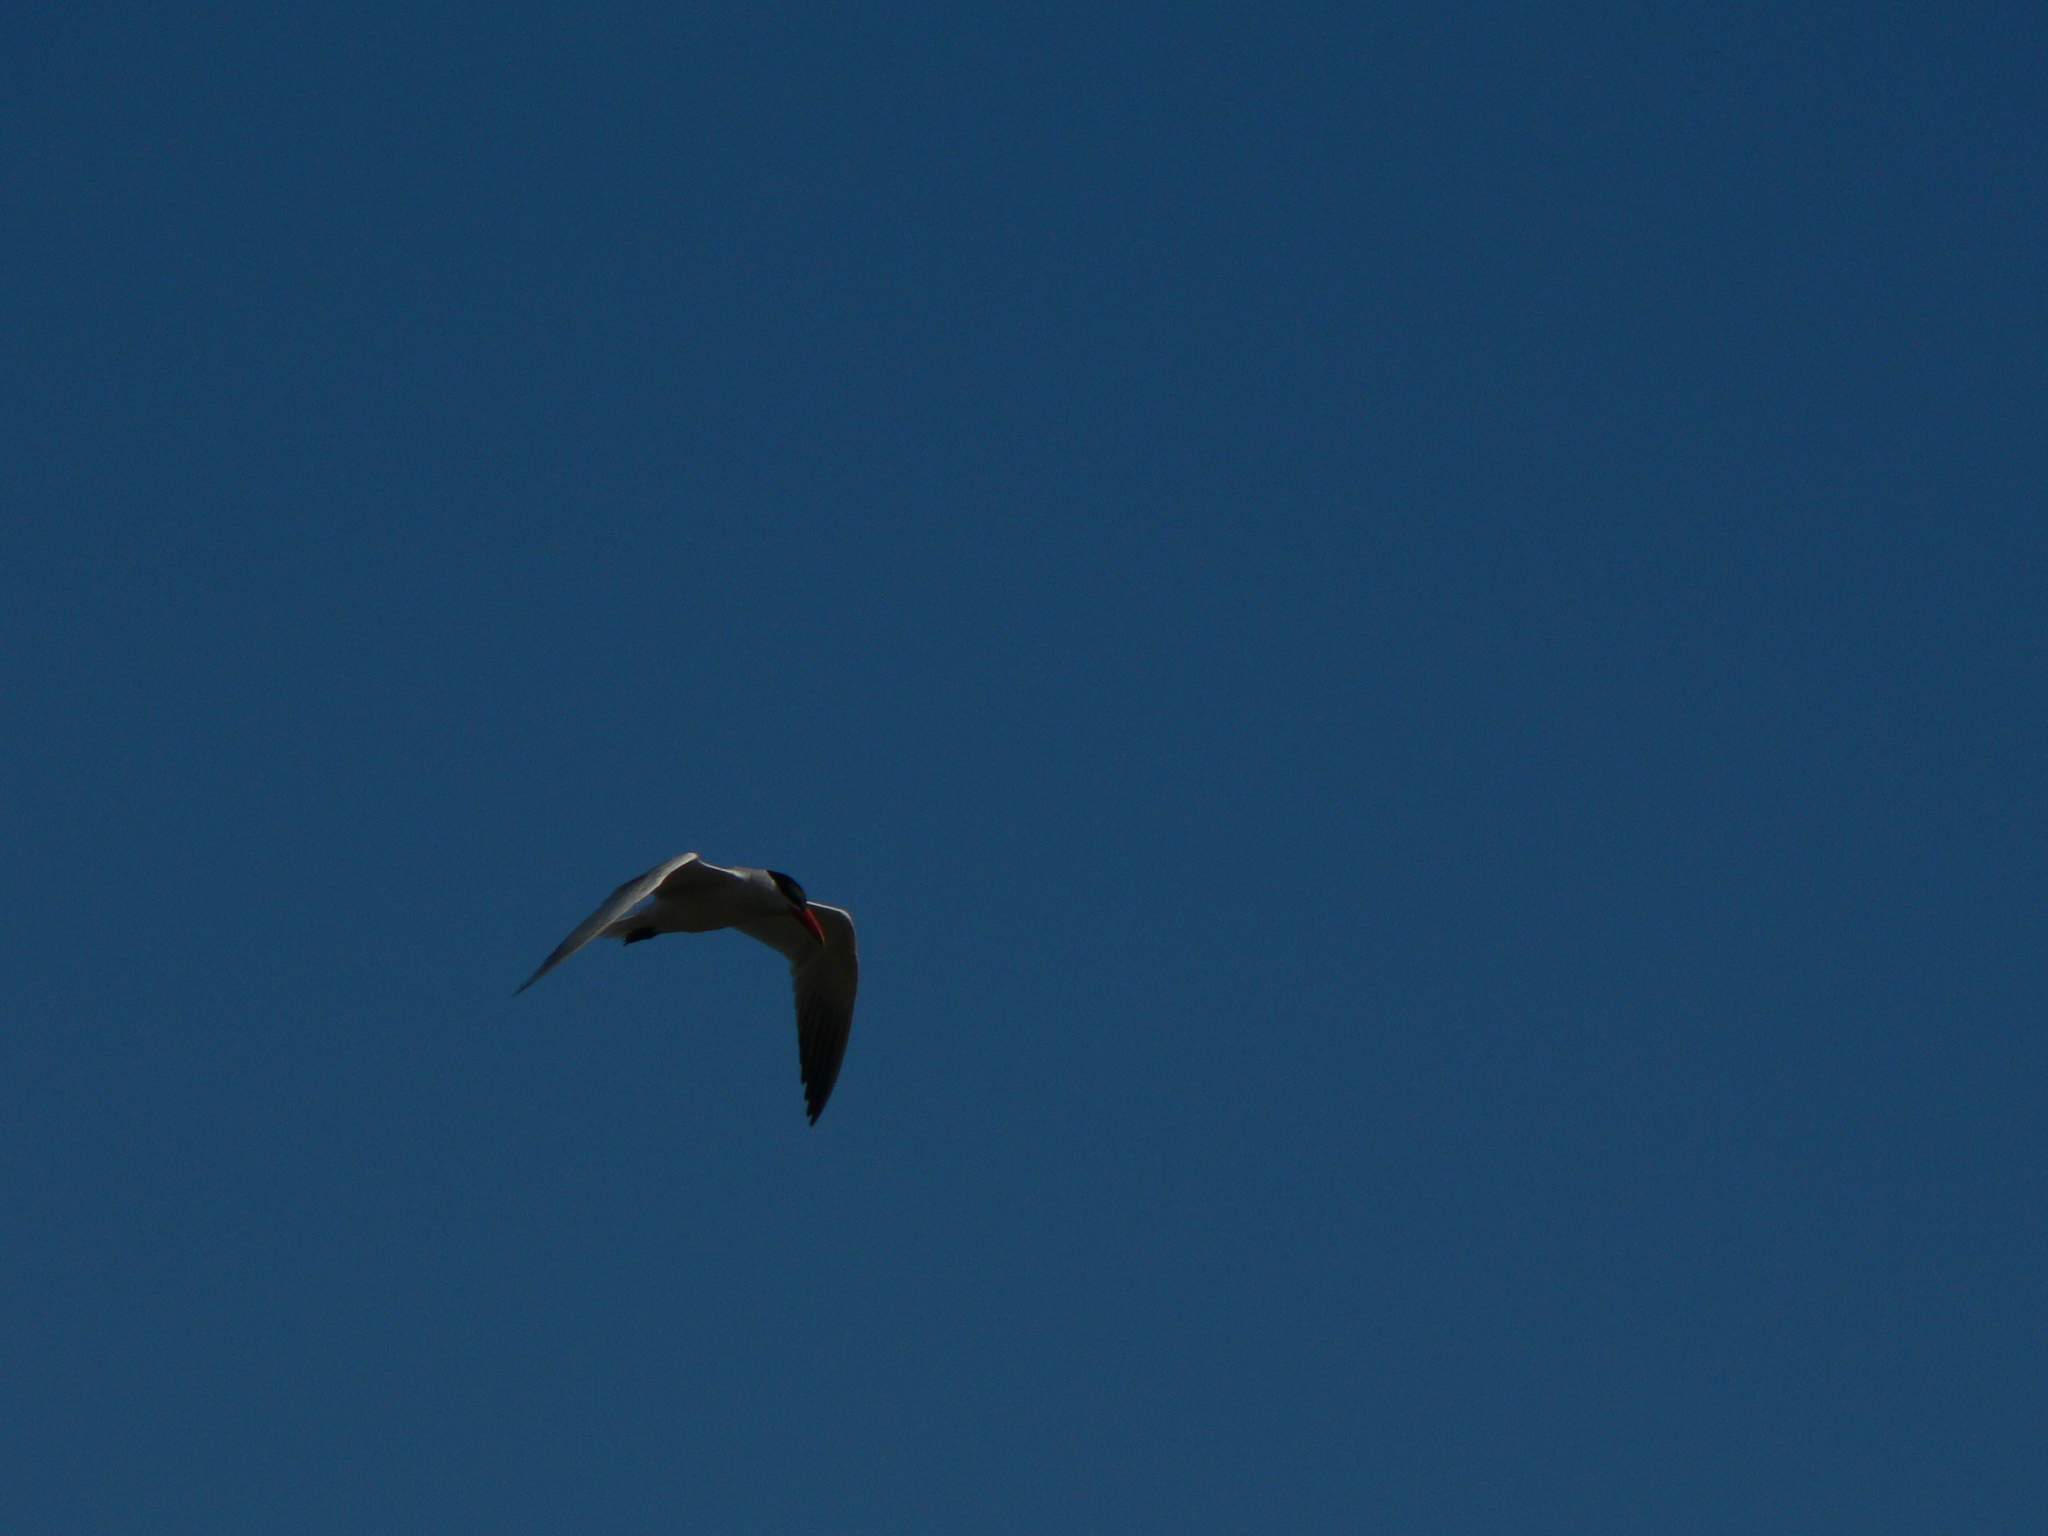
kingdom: Animalia
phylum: Chordata
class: Aves
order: Charadriiformes
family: Laridae
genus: Hydroprogne
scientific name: Hydroprogne caspia
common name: Caspian tern
